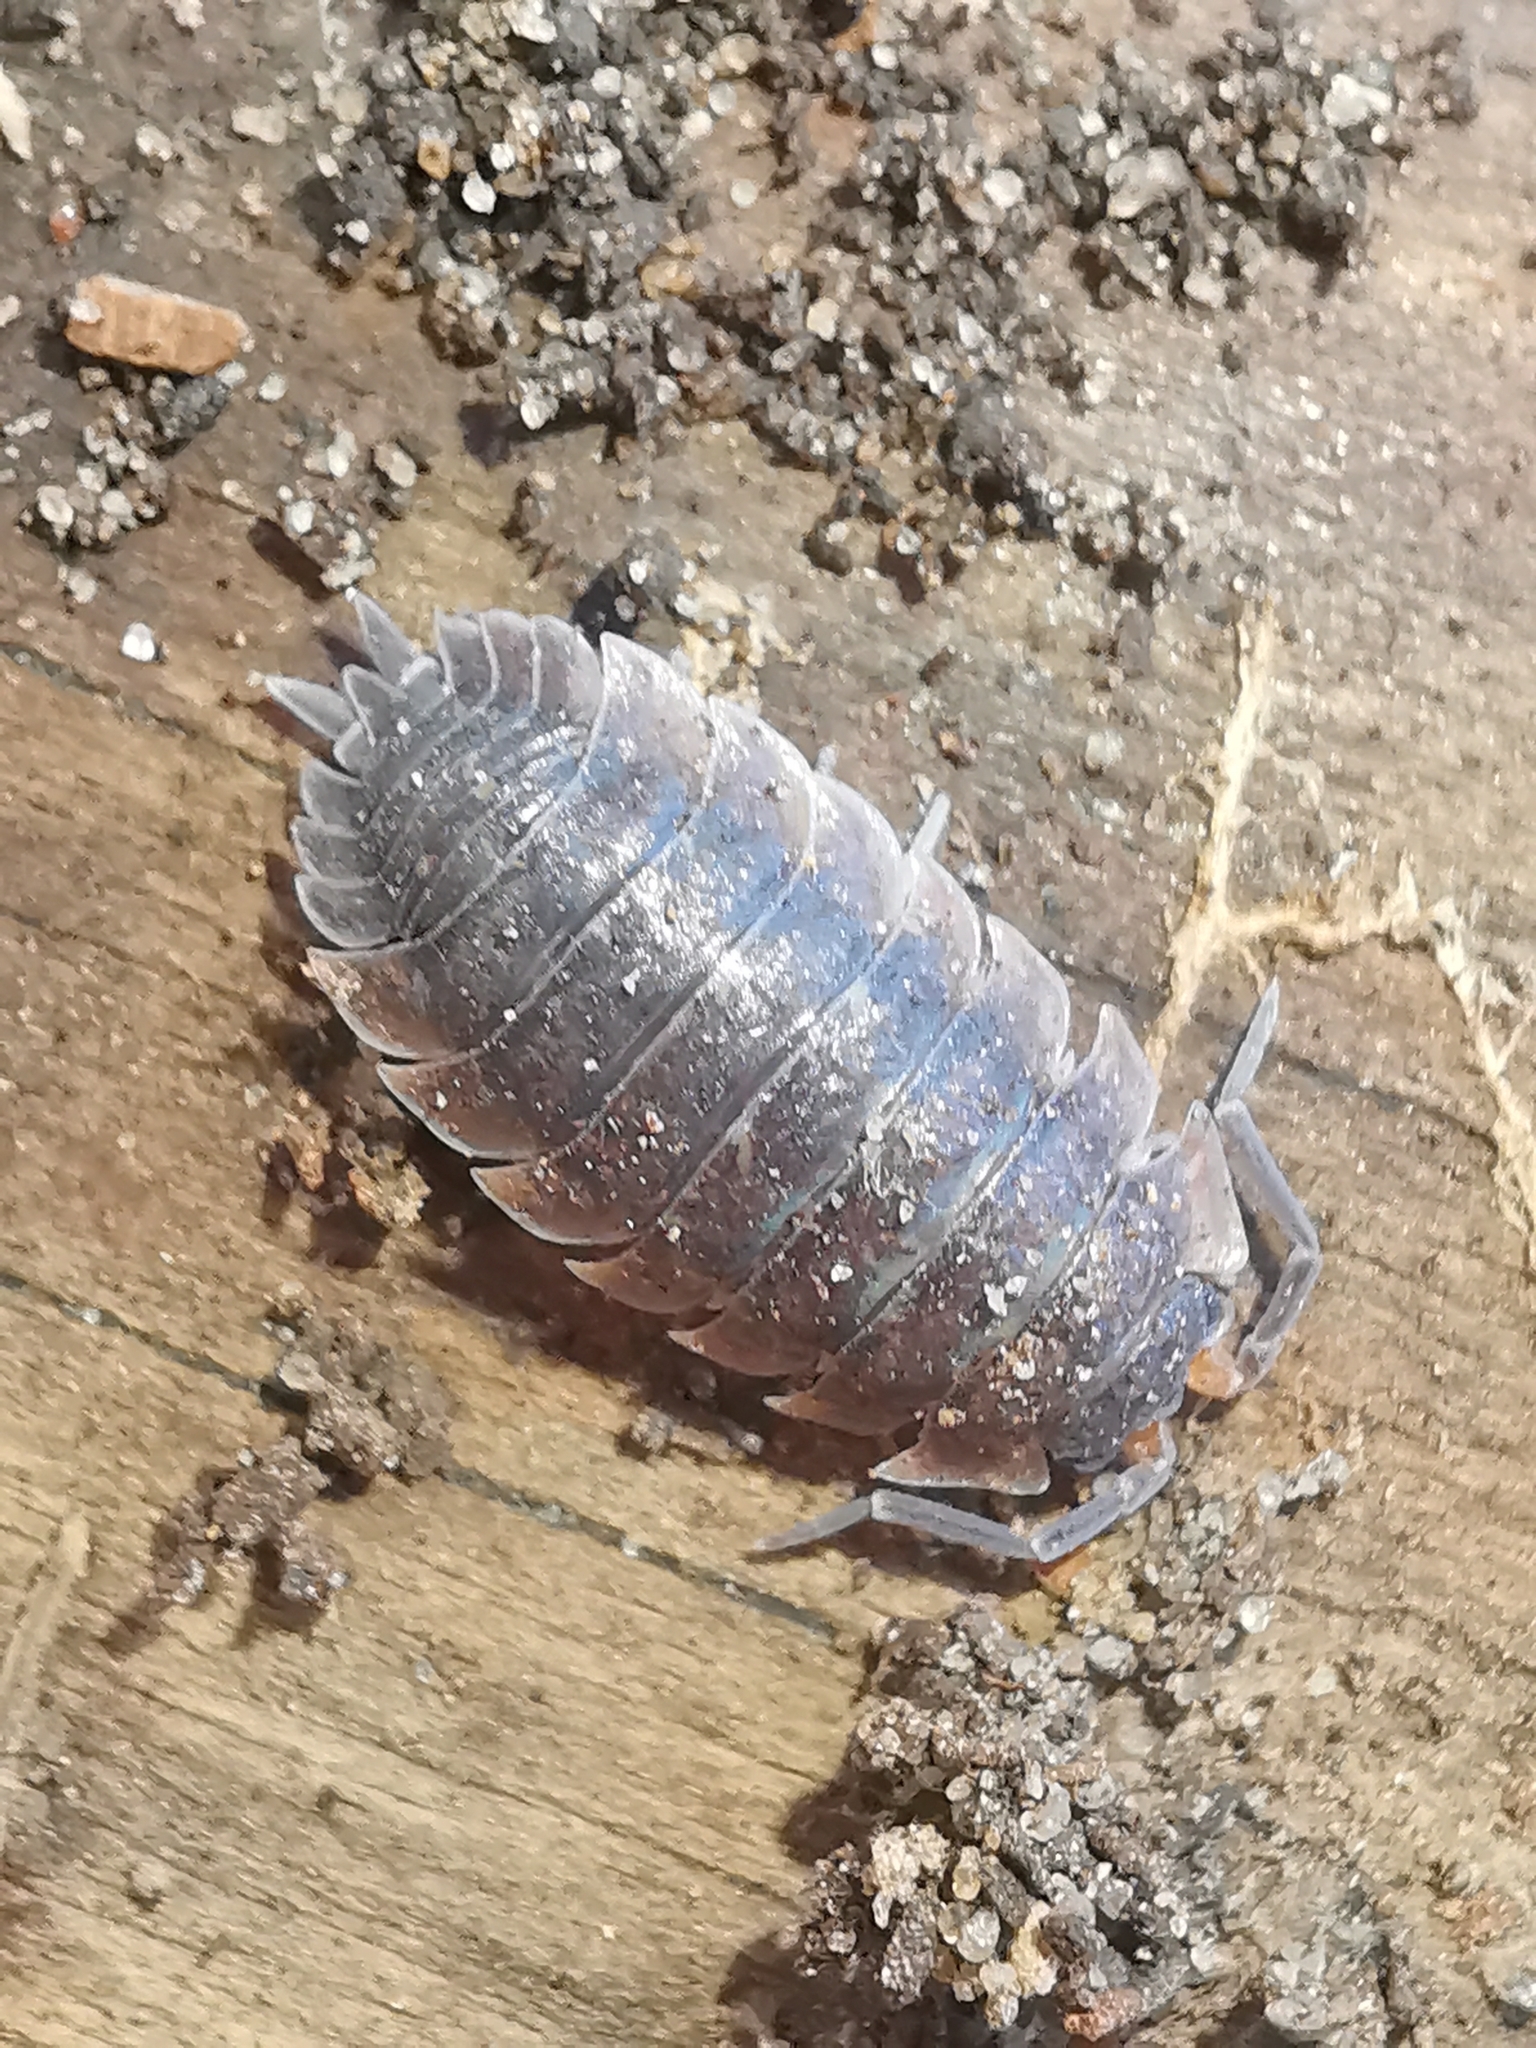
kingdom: Animalia
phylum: Arthropoda
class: Malacostraca
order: Isopoda
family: Porcellionidae
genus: Porcellio
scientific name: Porcellio scaber
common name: Common rough woodlouse
